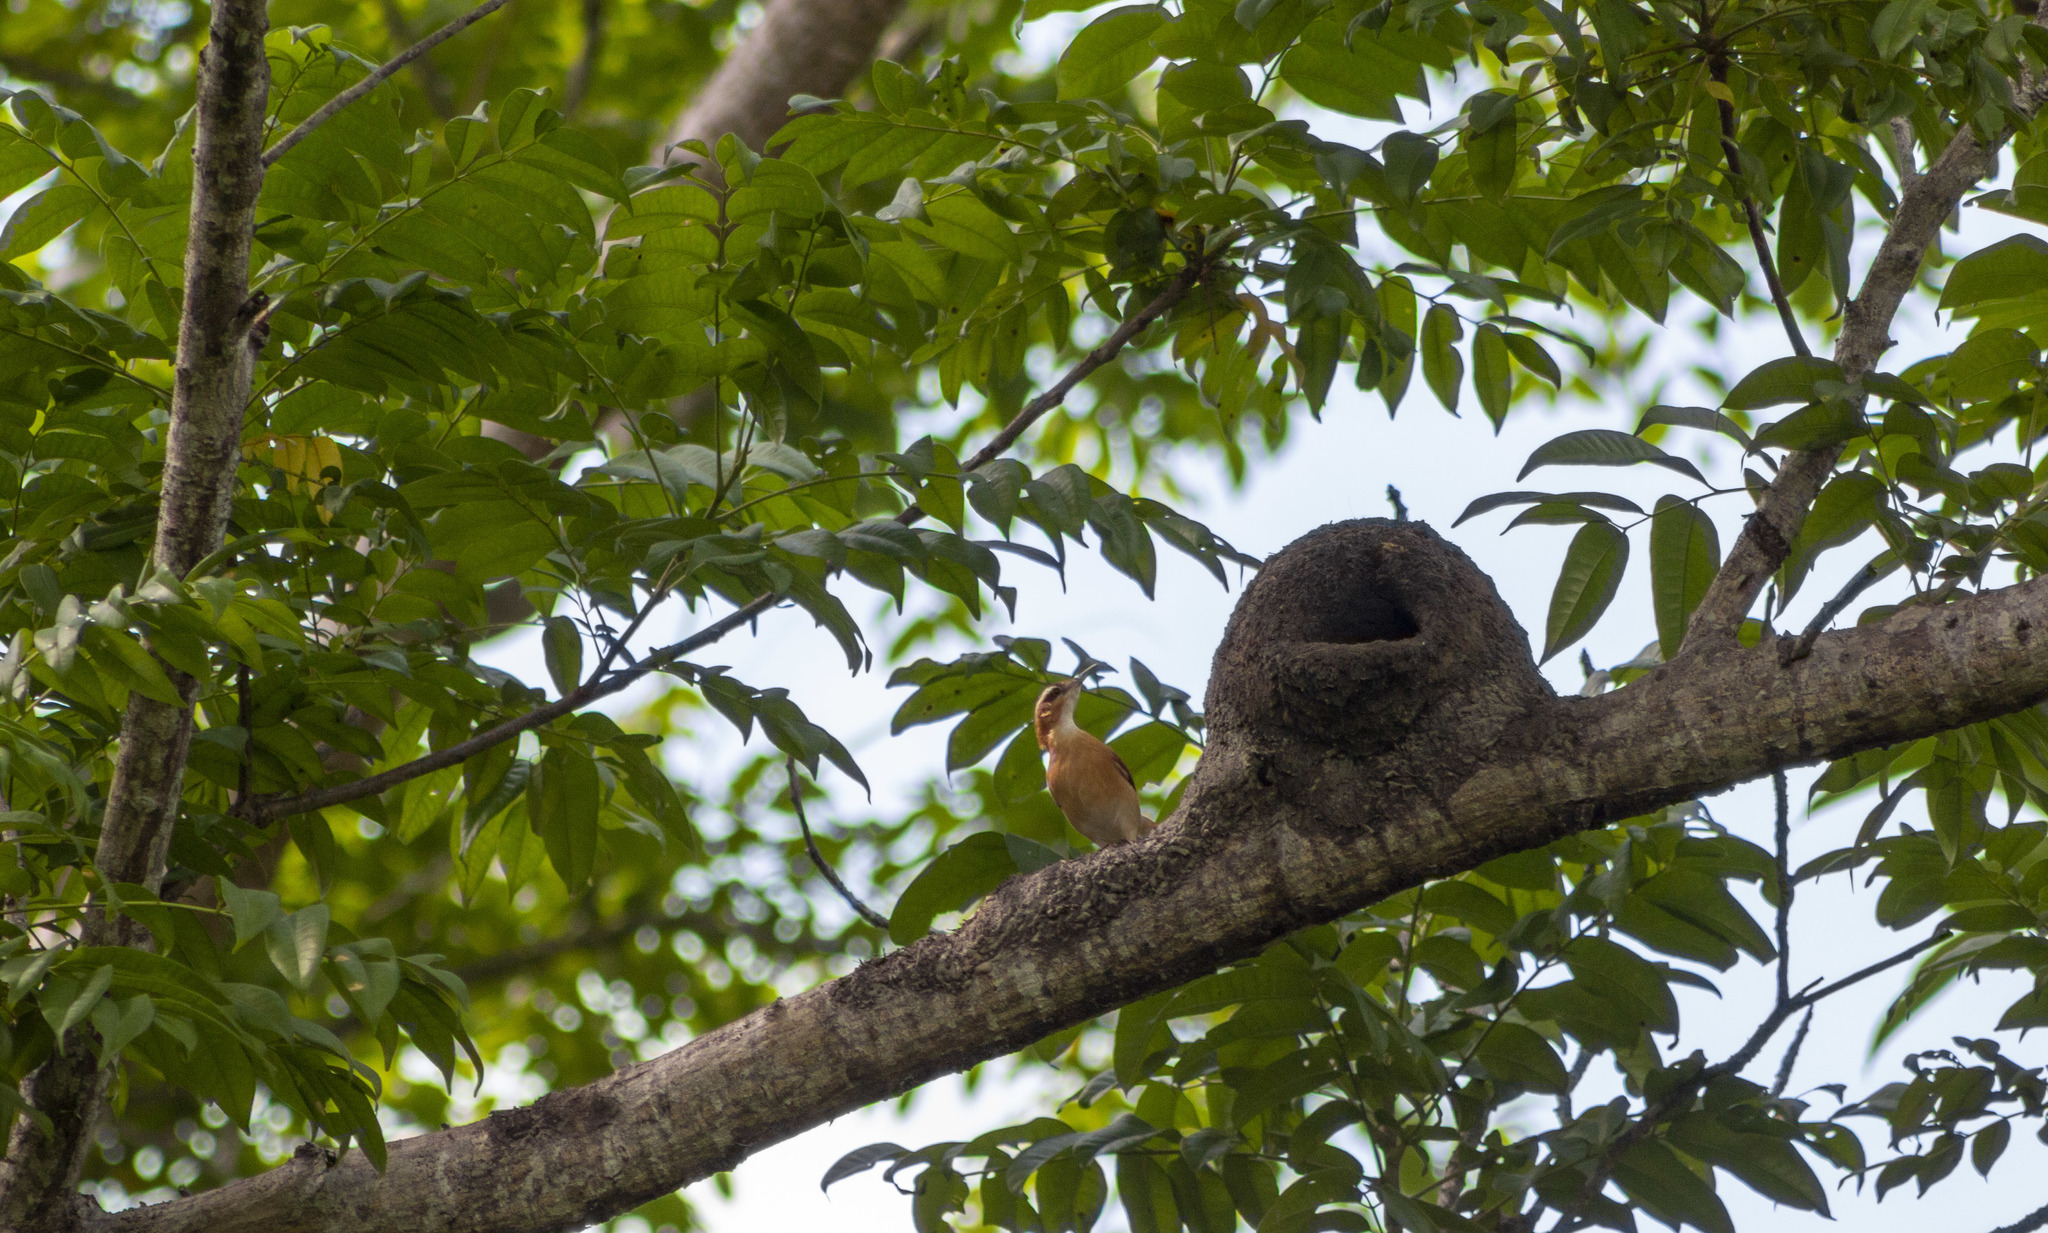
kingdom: Animalia
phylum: Chordata
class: Aves
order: Passeriformes
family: Furnariidae
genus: Furnarius
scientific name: Furnarius leucopus
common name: Pale-legged hornero
